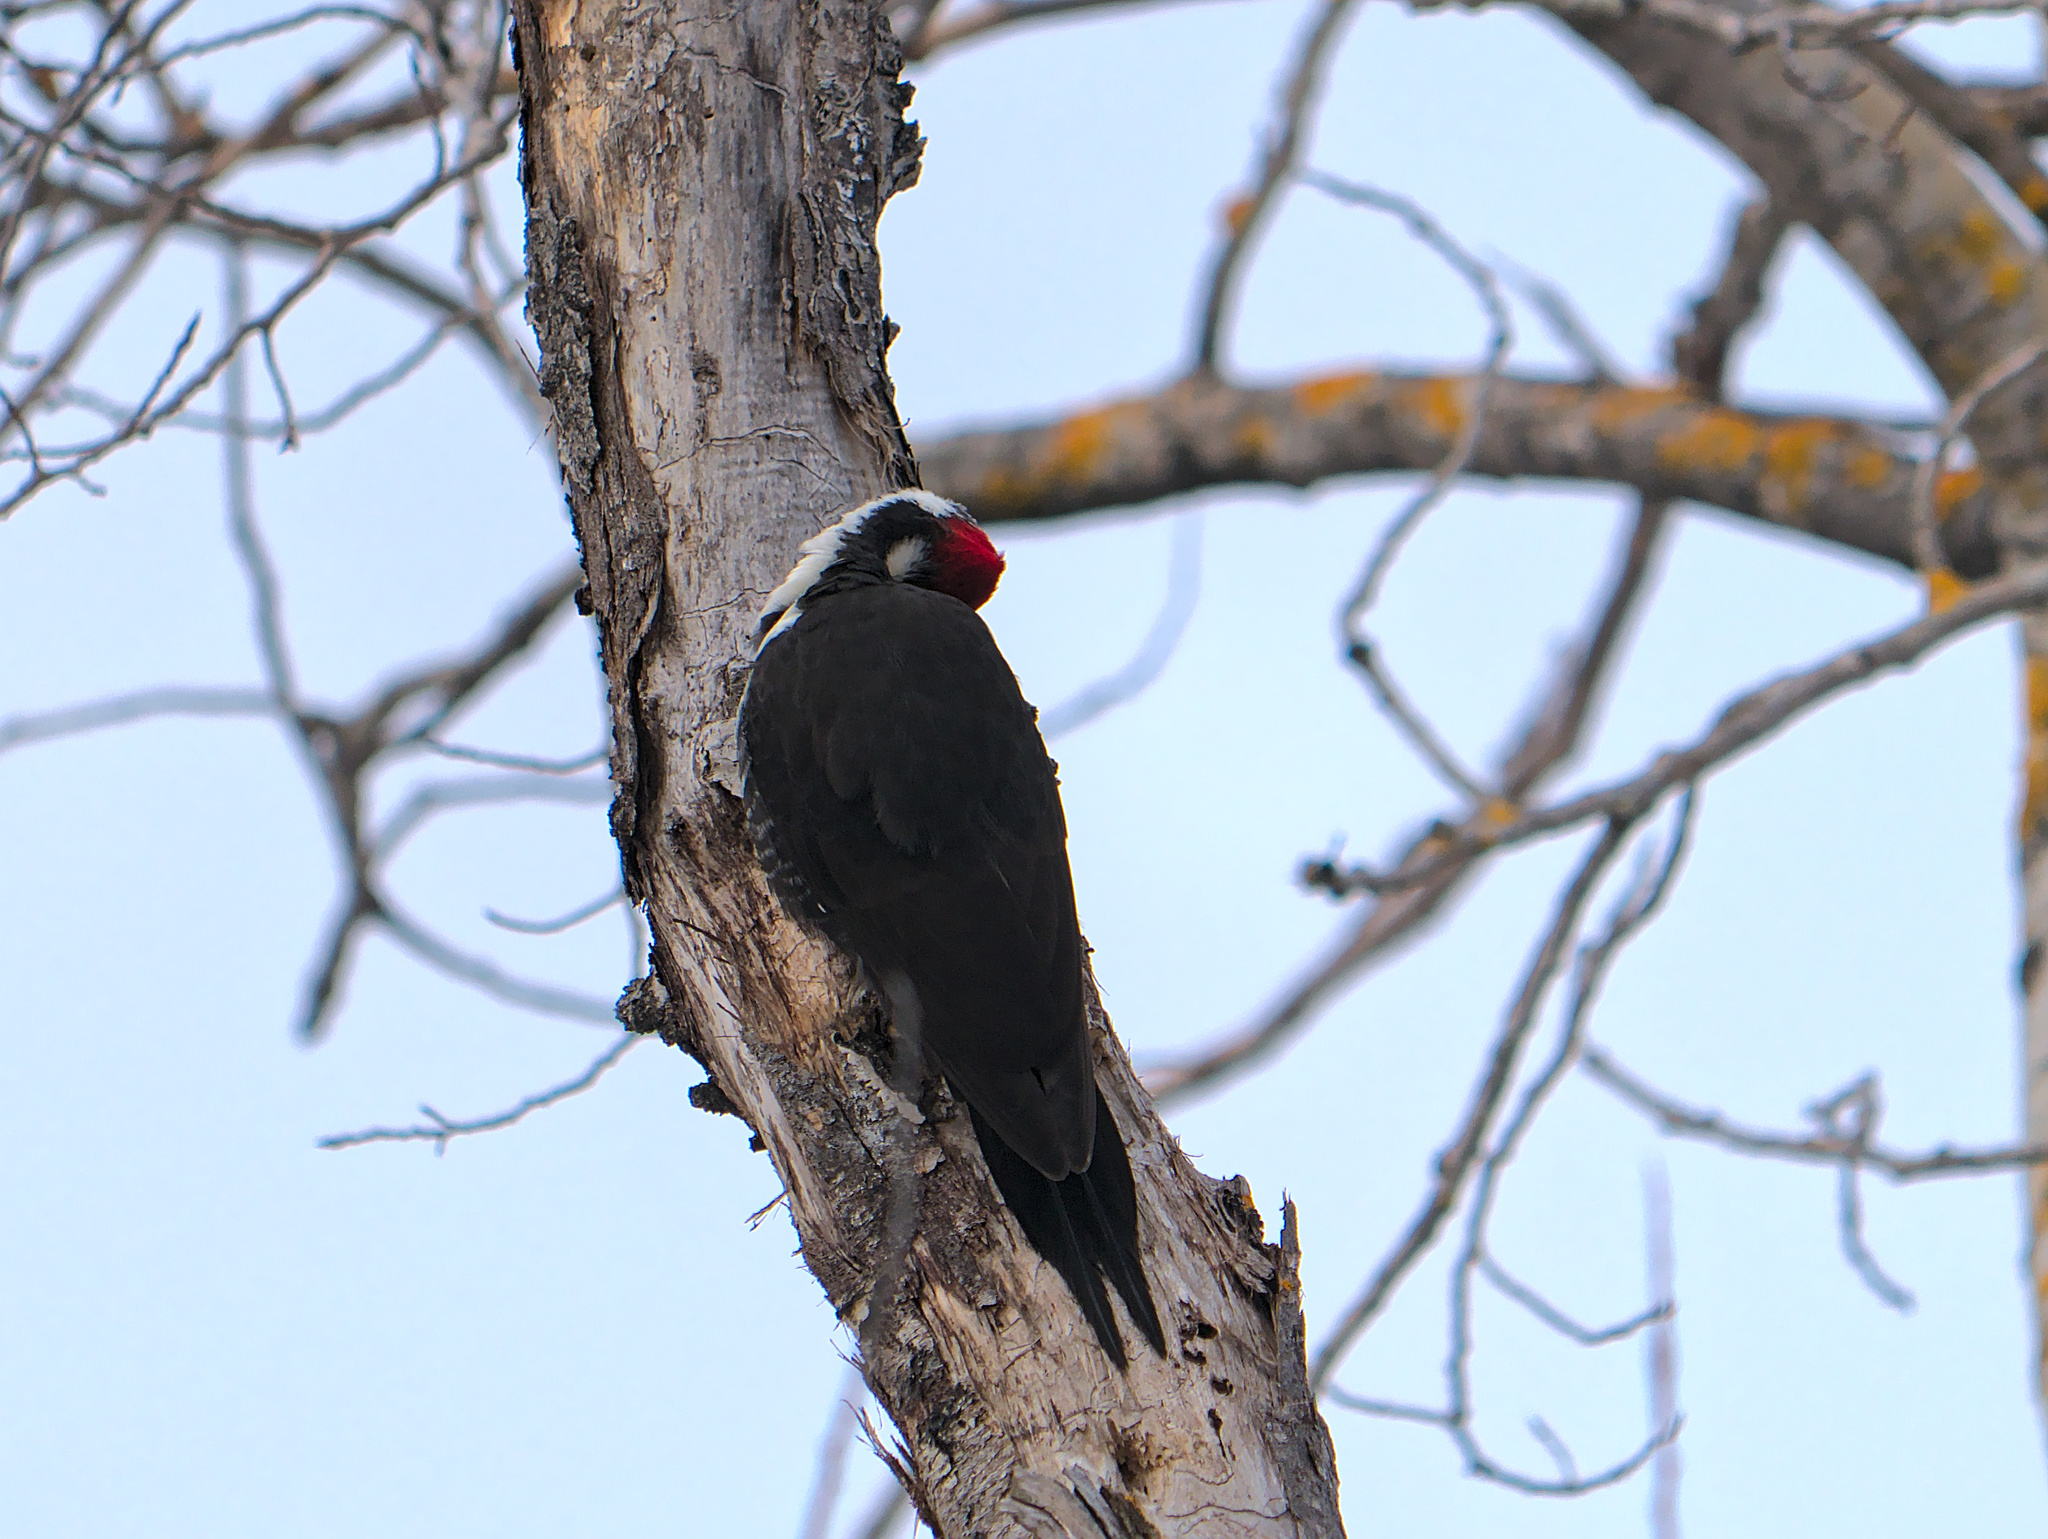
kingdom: Animalia
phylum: Chordata
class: Aves
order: Piciformes
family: Picidae
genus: Dryocopus
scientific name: Dryocopus pileatus
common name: Pileated woodpecker
